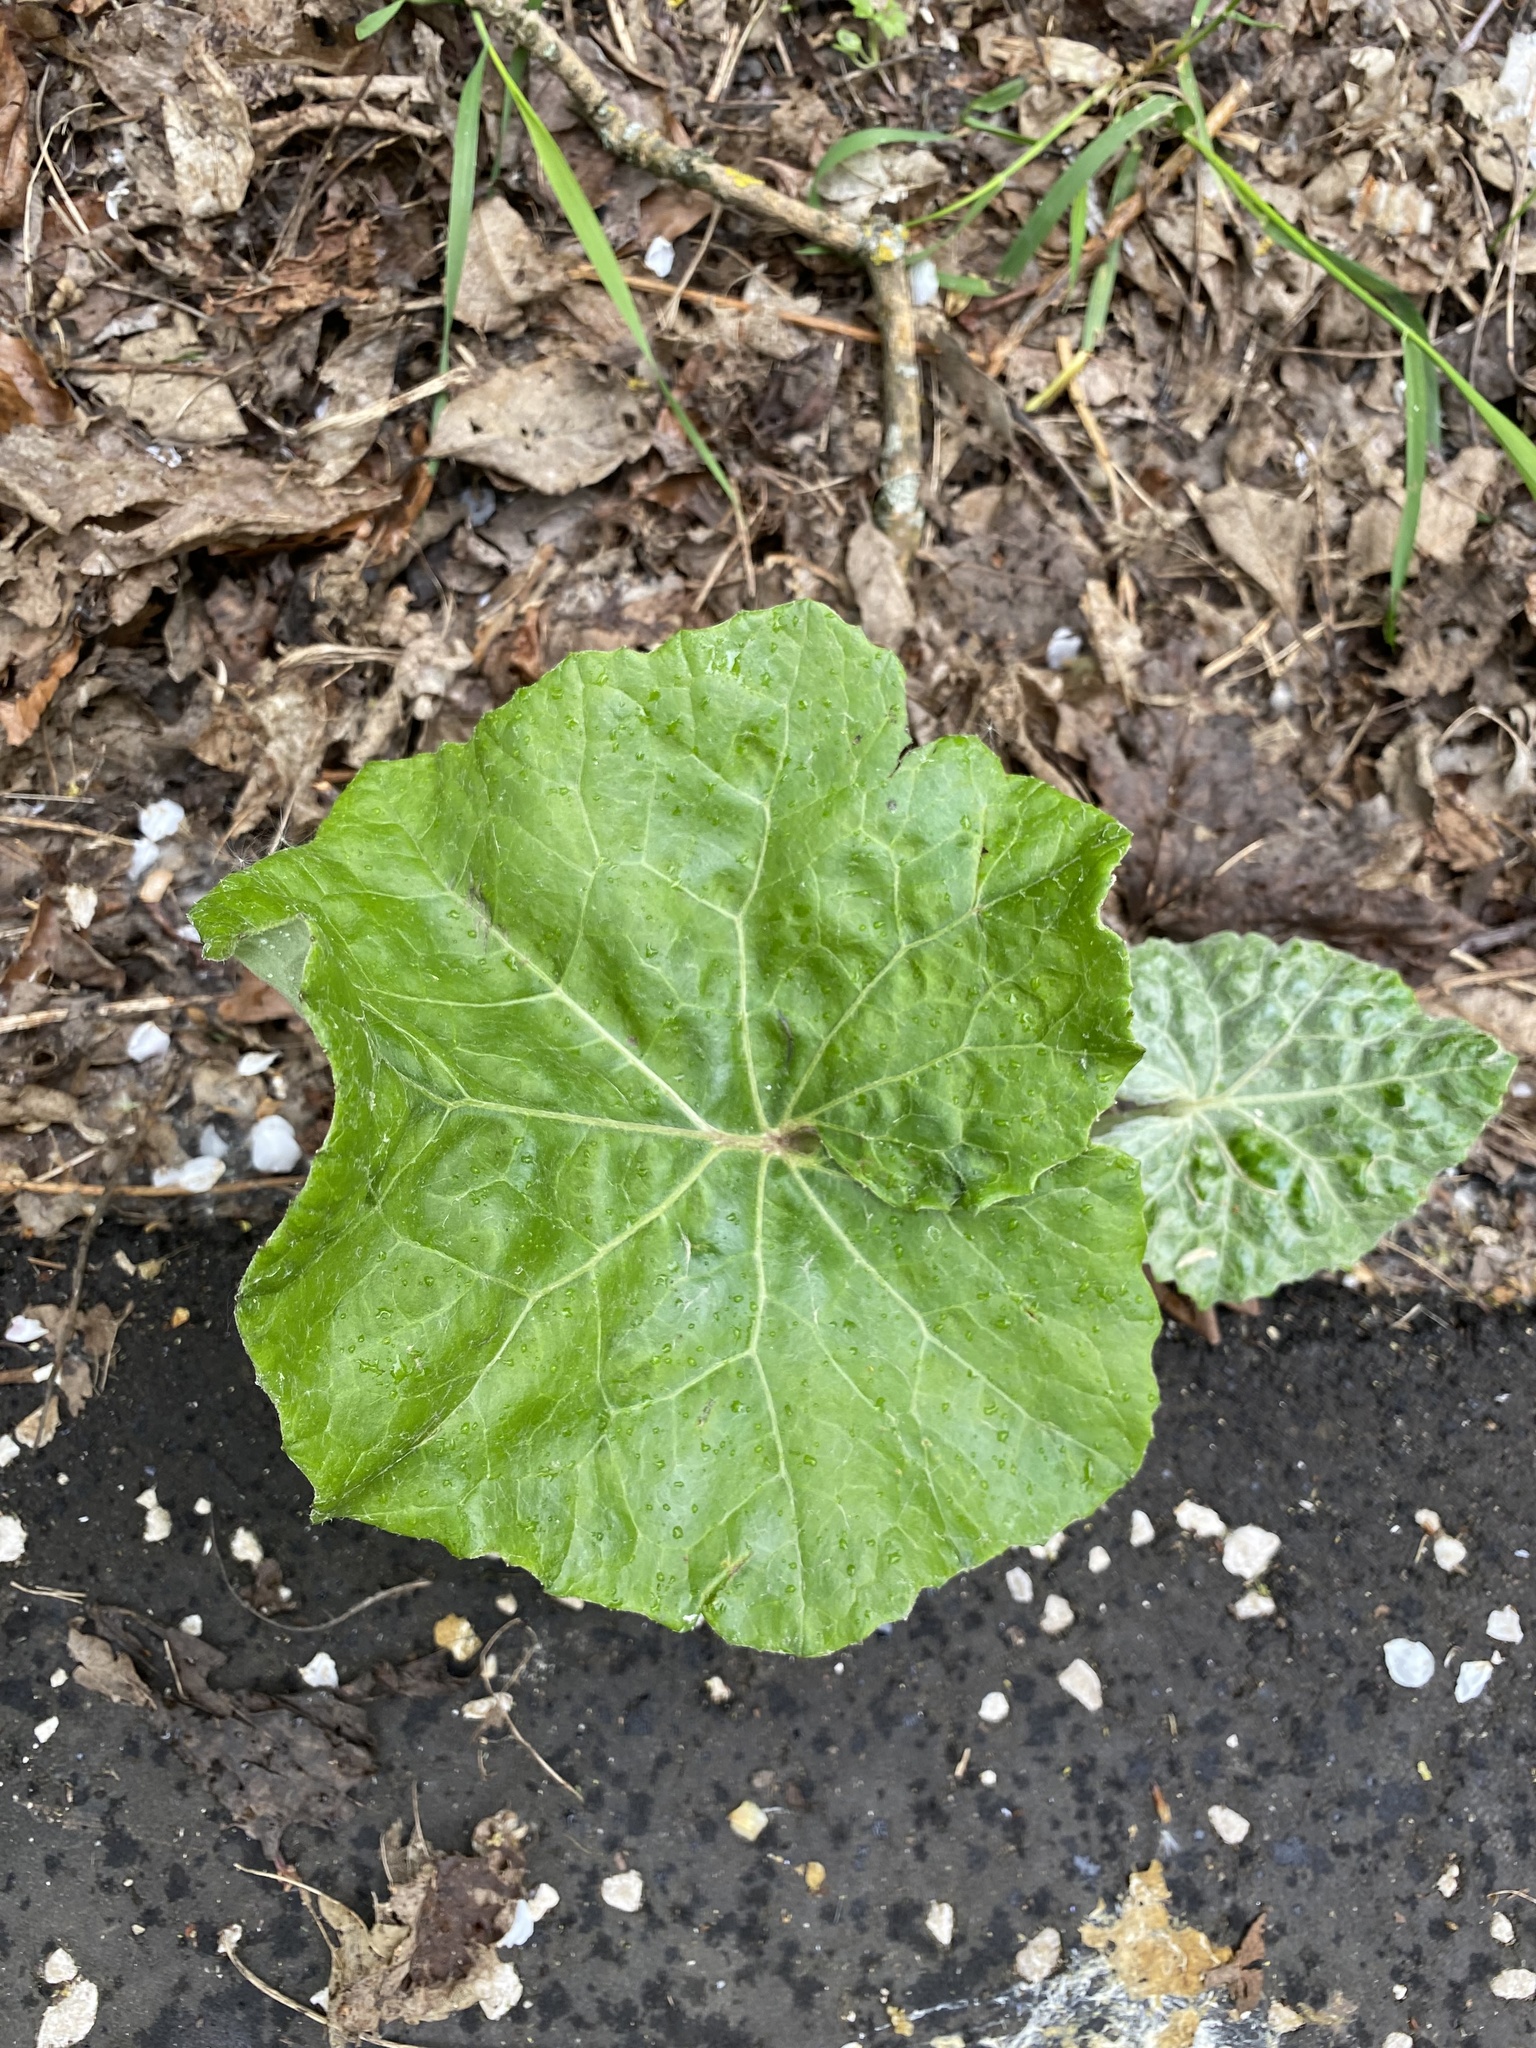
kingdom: Plantae
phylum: Tracheophyta
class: Magnoliopsida
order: Asterales
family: Asteraceae
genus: Tussilago
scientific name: Tussilago farfara
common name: Coltsfoot
